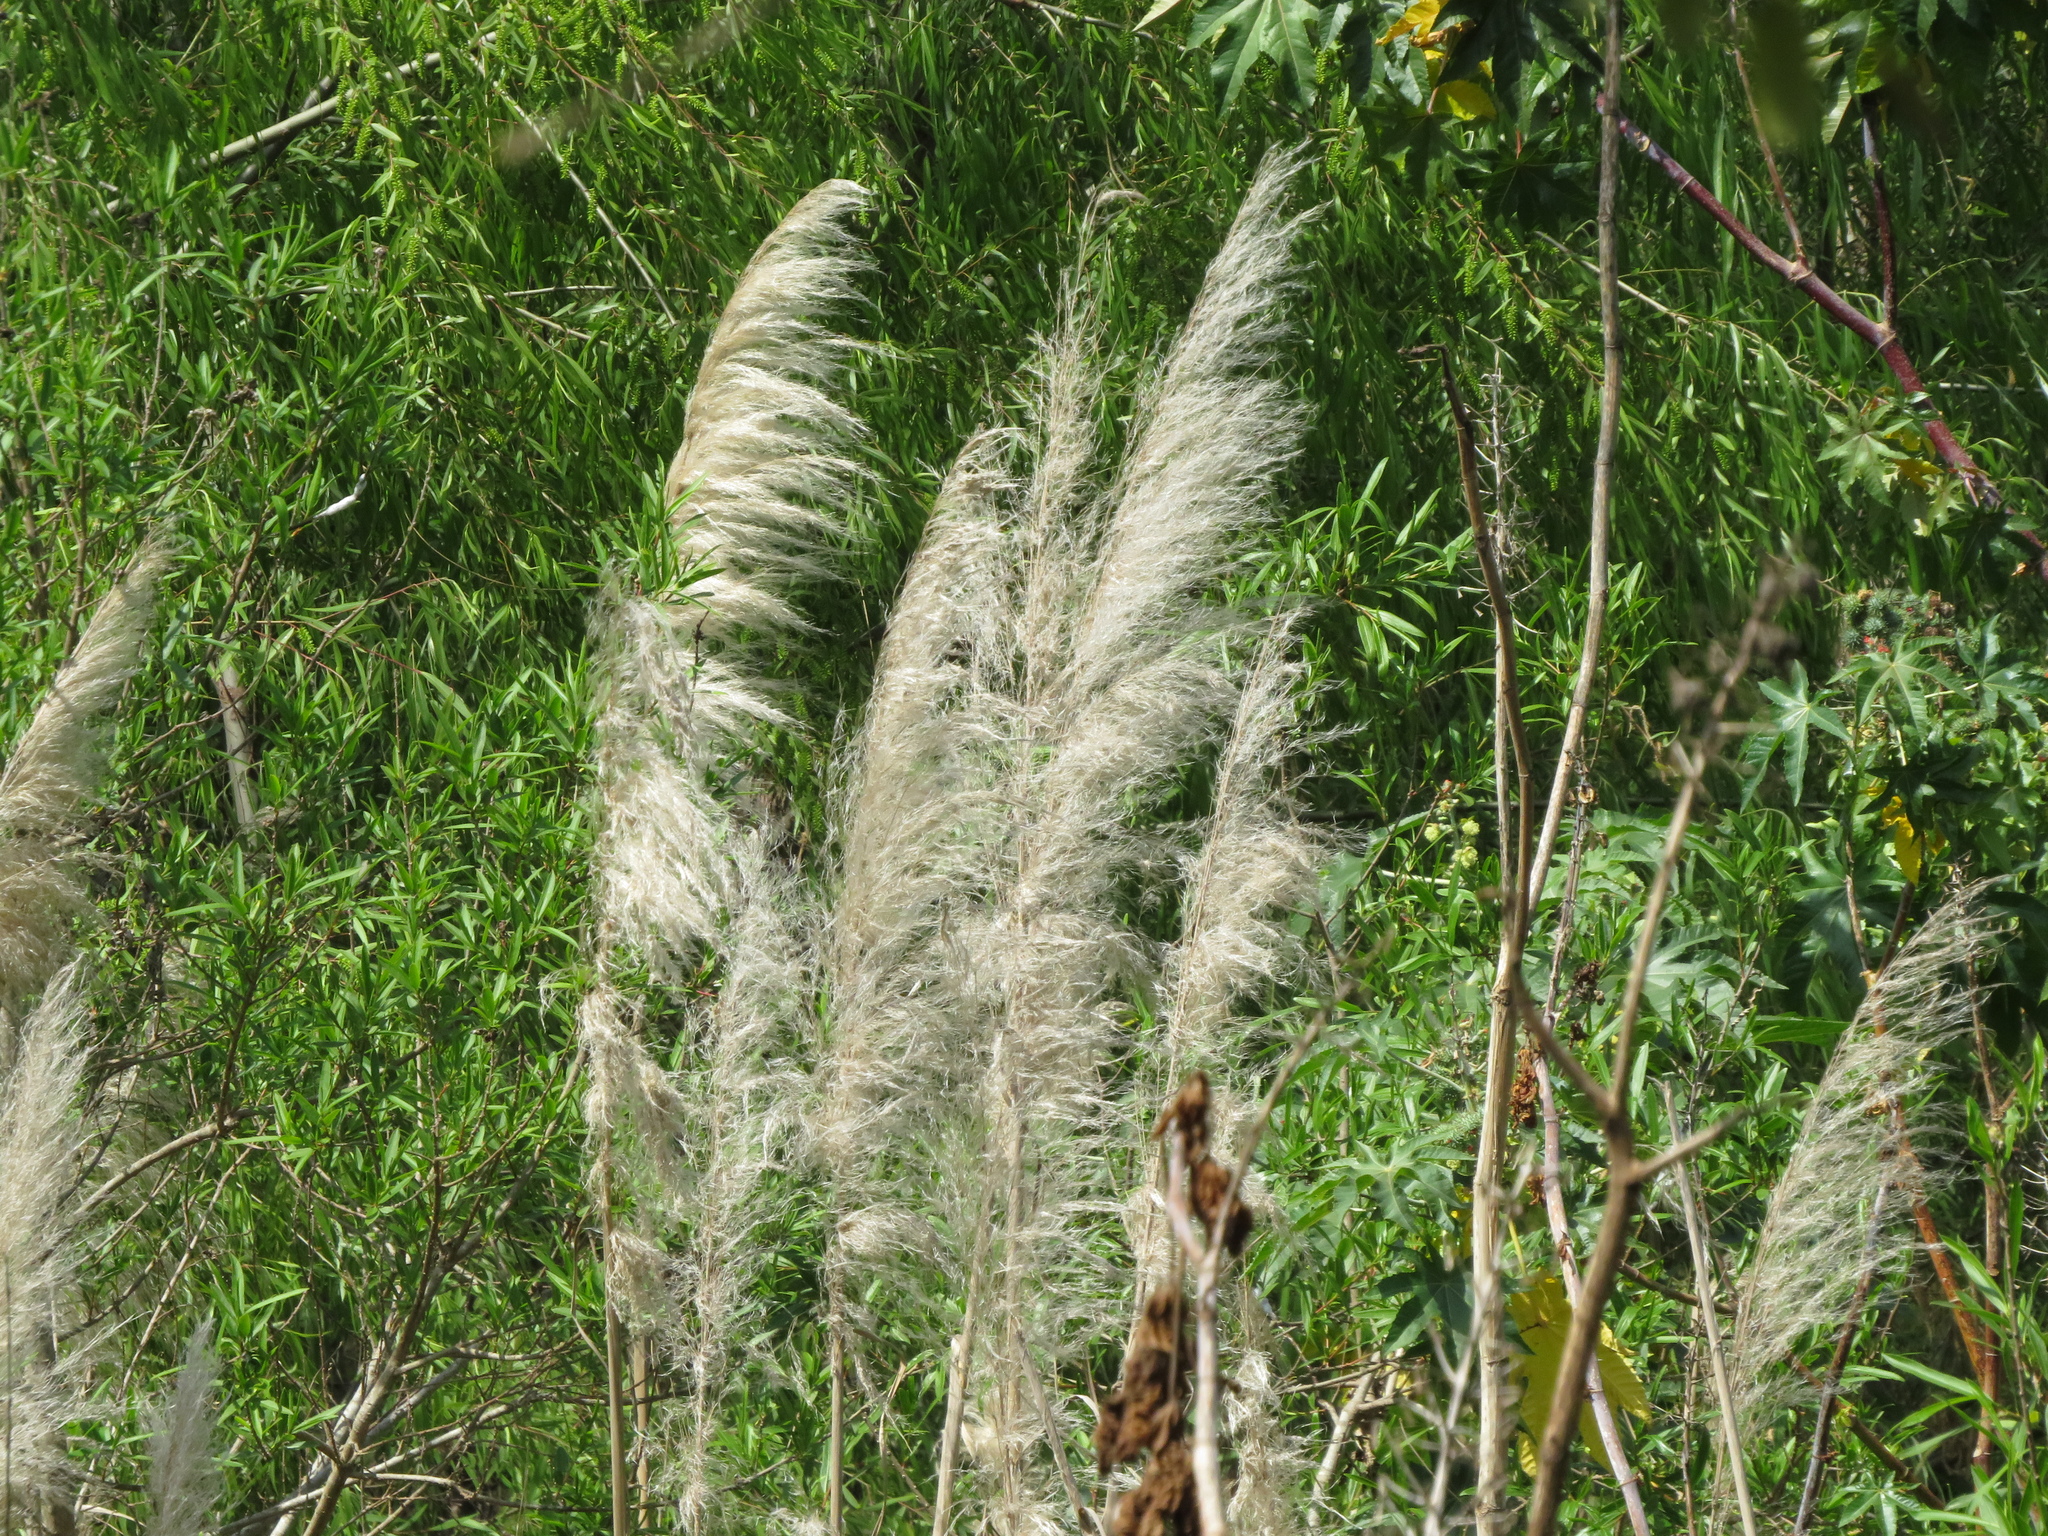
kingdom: Plantae
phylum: Tracheophyta
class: Liliopsida
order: Poales
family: Poaceae
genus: Cortaderia
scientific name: Cortaderia selloana
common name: Uruguayan pampas grass
